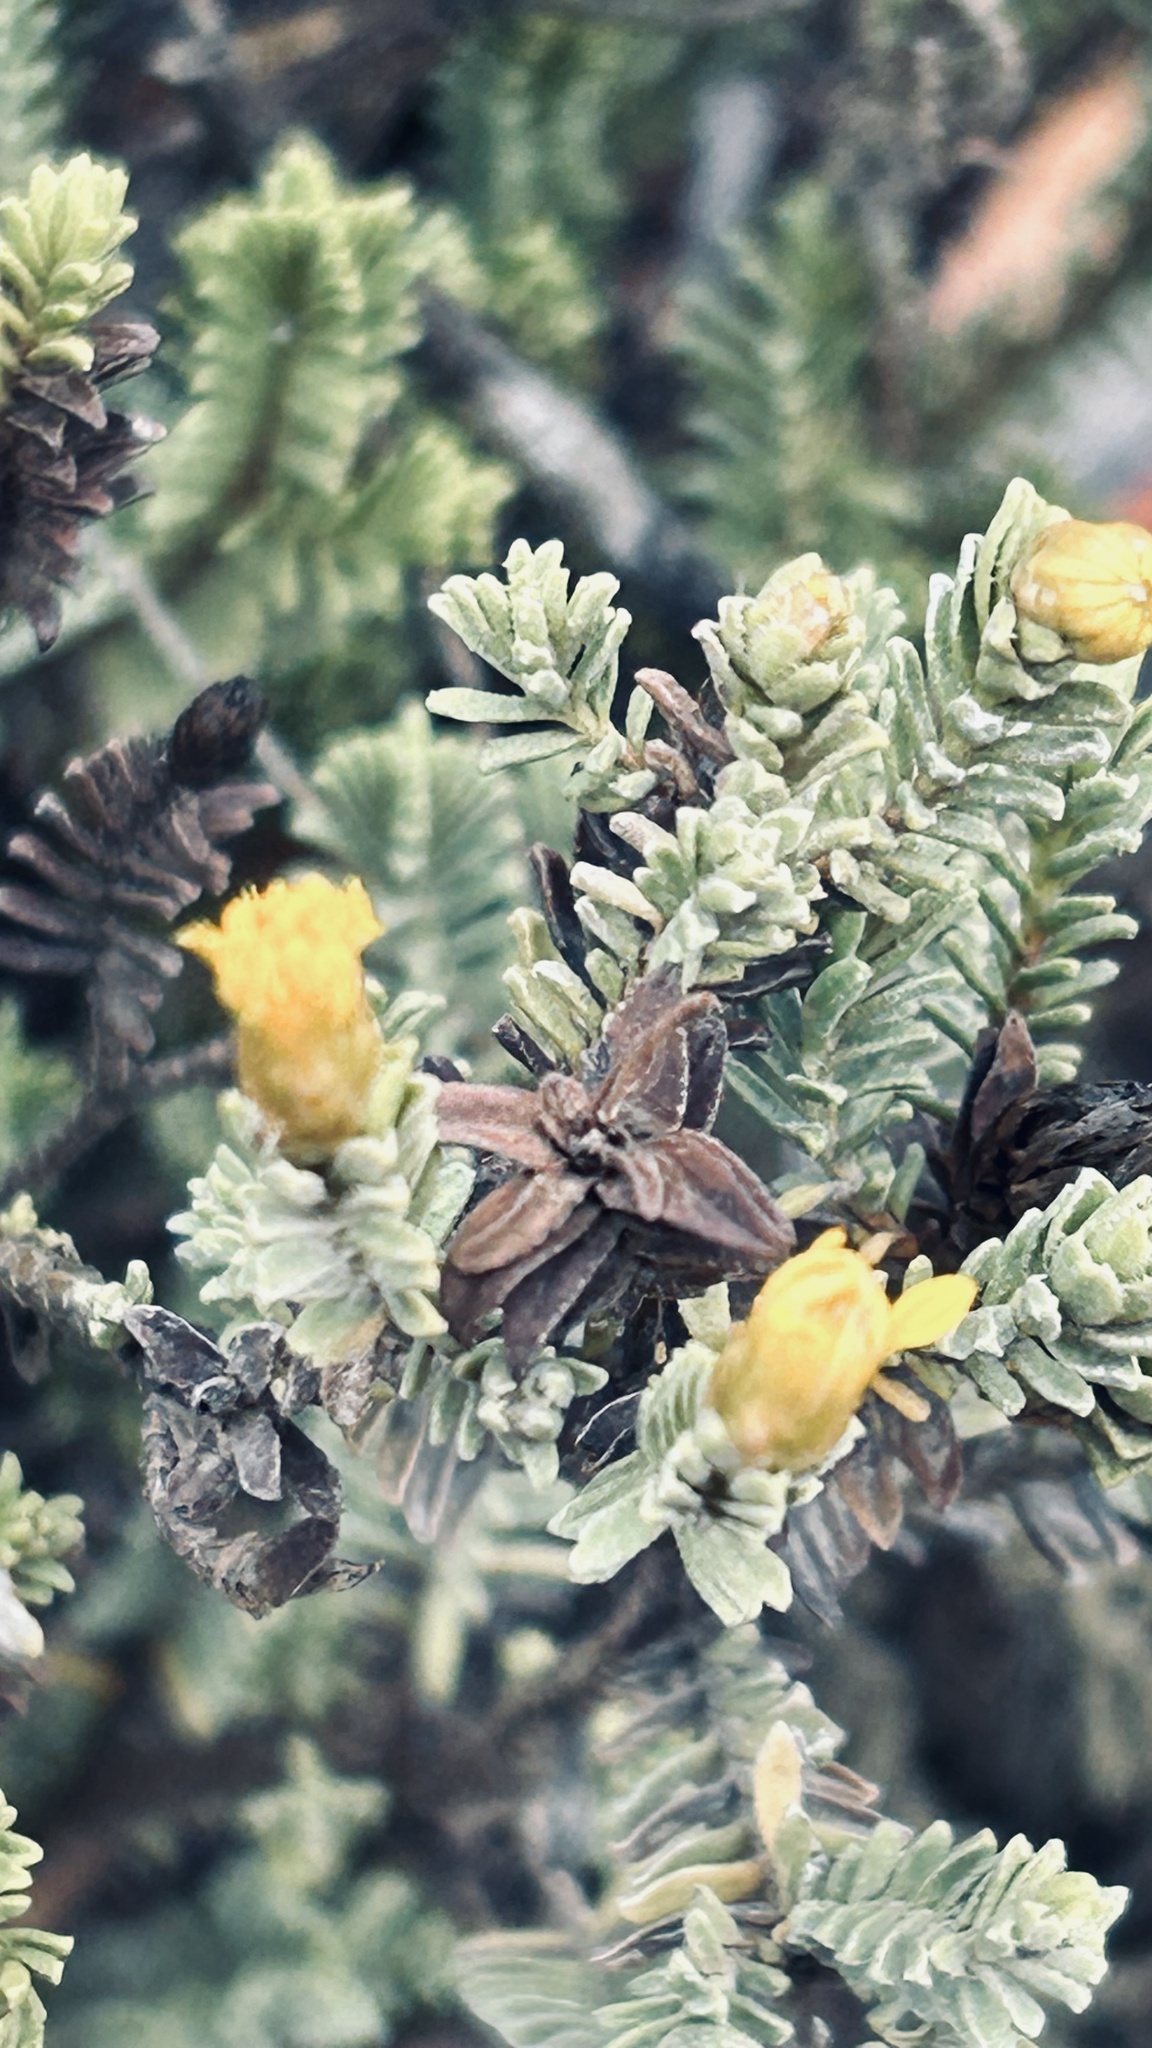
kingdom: Plantae
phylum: Tracheophyta
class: Magnoliopsida
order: Asterales
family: Asteraceae
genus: Oedera
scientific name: Oedera uniflora
